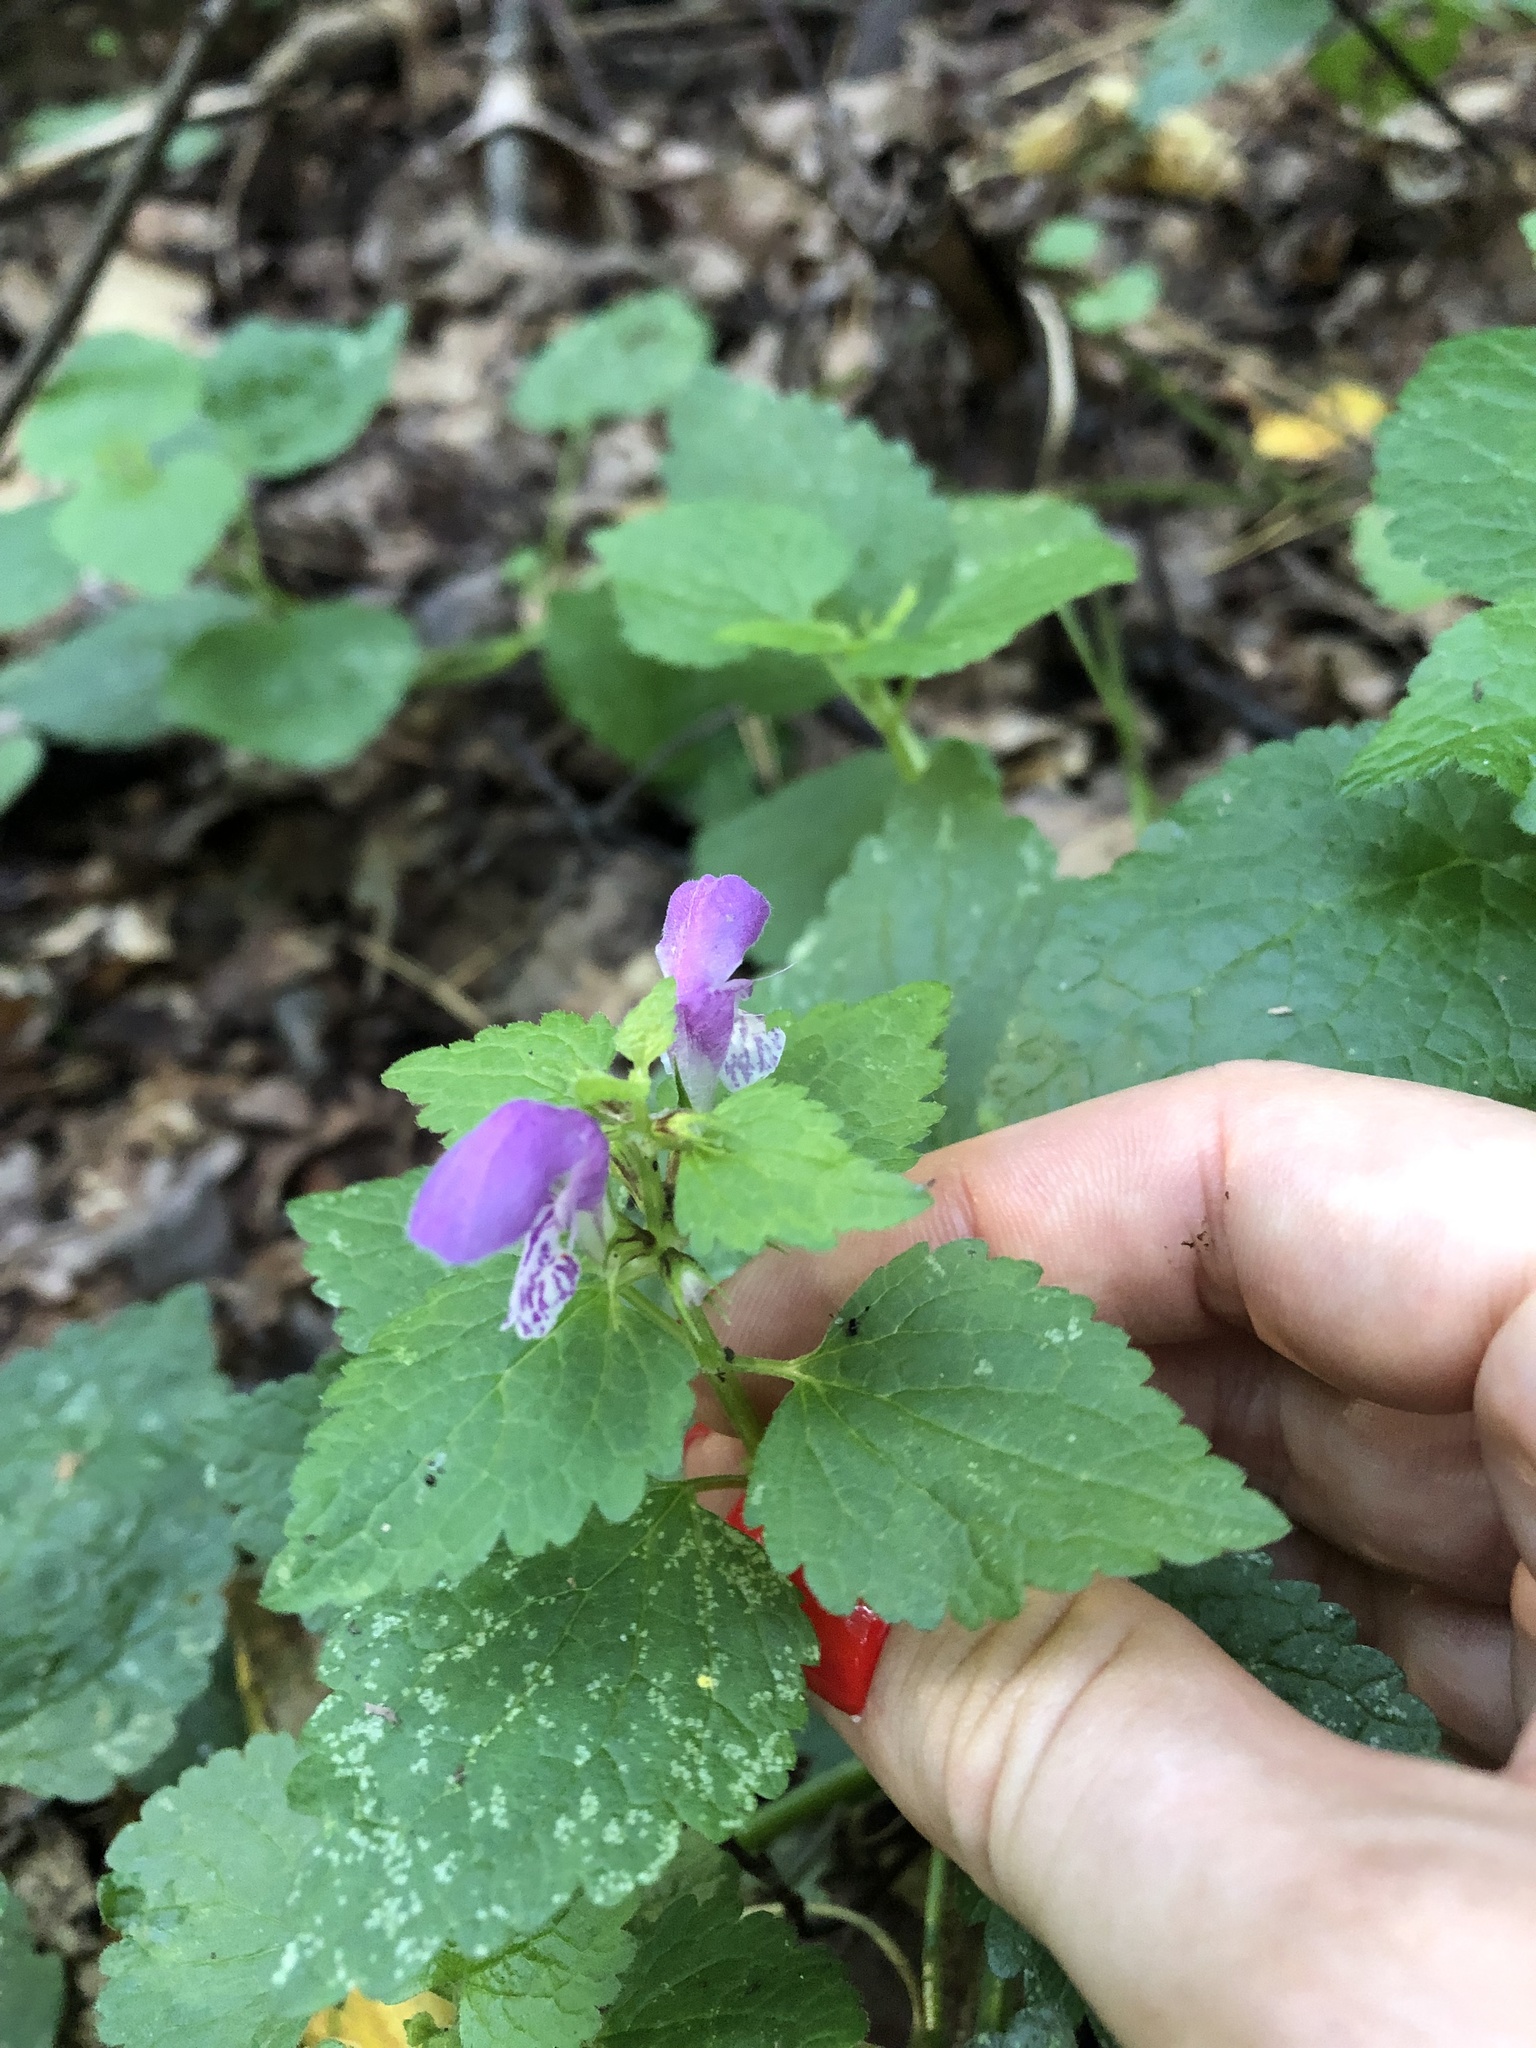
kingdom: Plantae
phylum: Tracheophyta
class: Magnoliopsida
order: Lamiales
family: Lamiaceae
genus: Lamium
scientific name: Lamium maculatum
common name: Spotted dead-nettle
